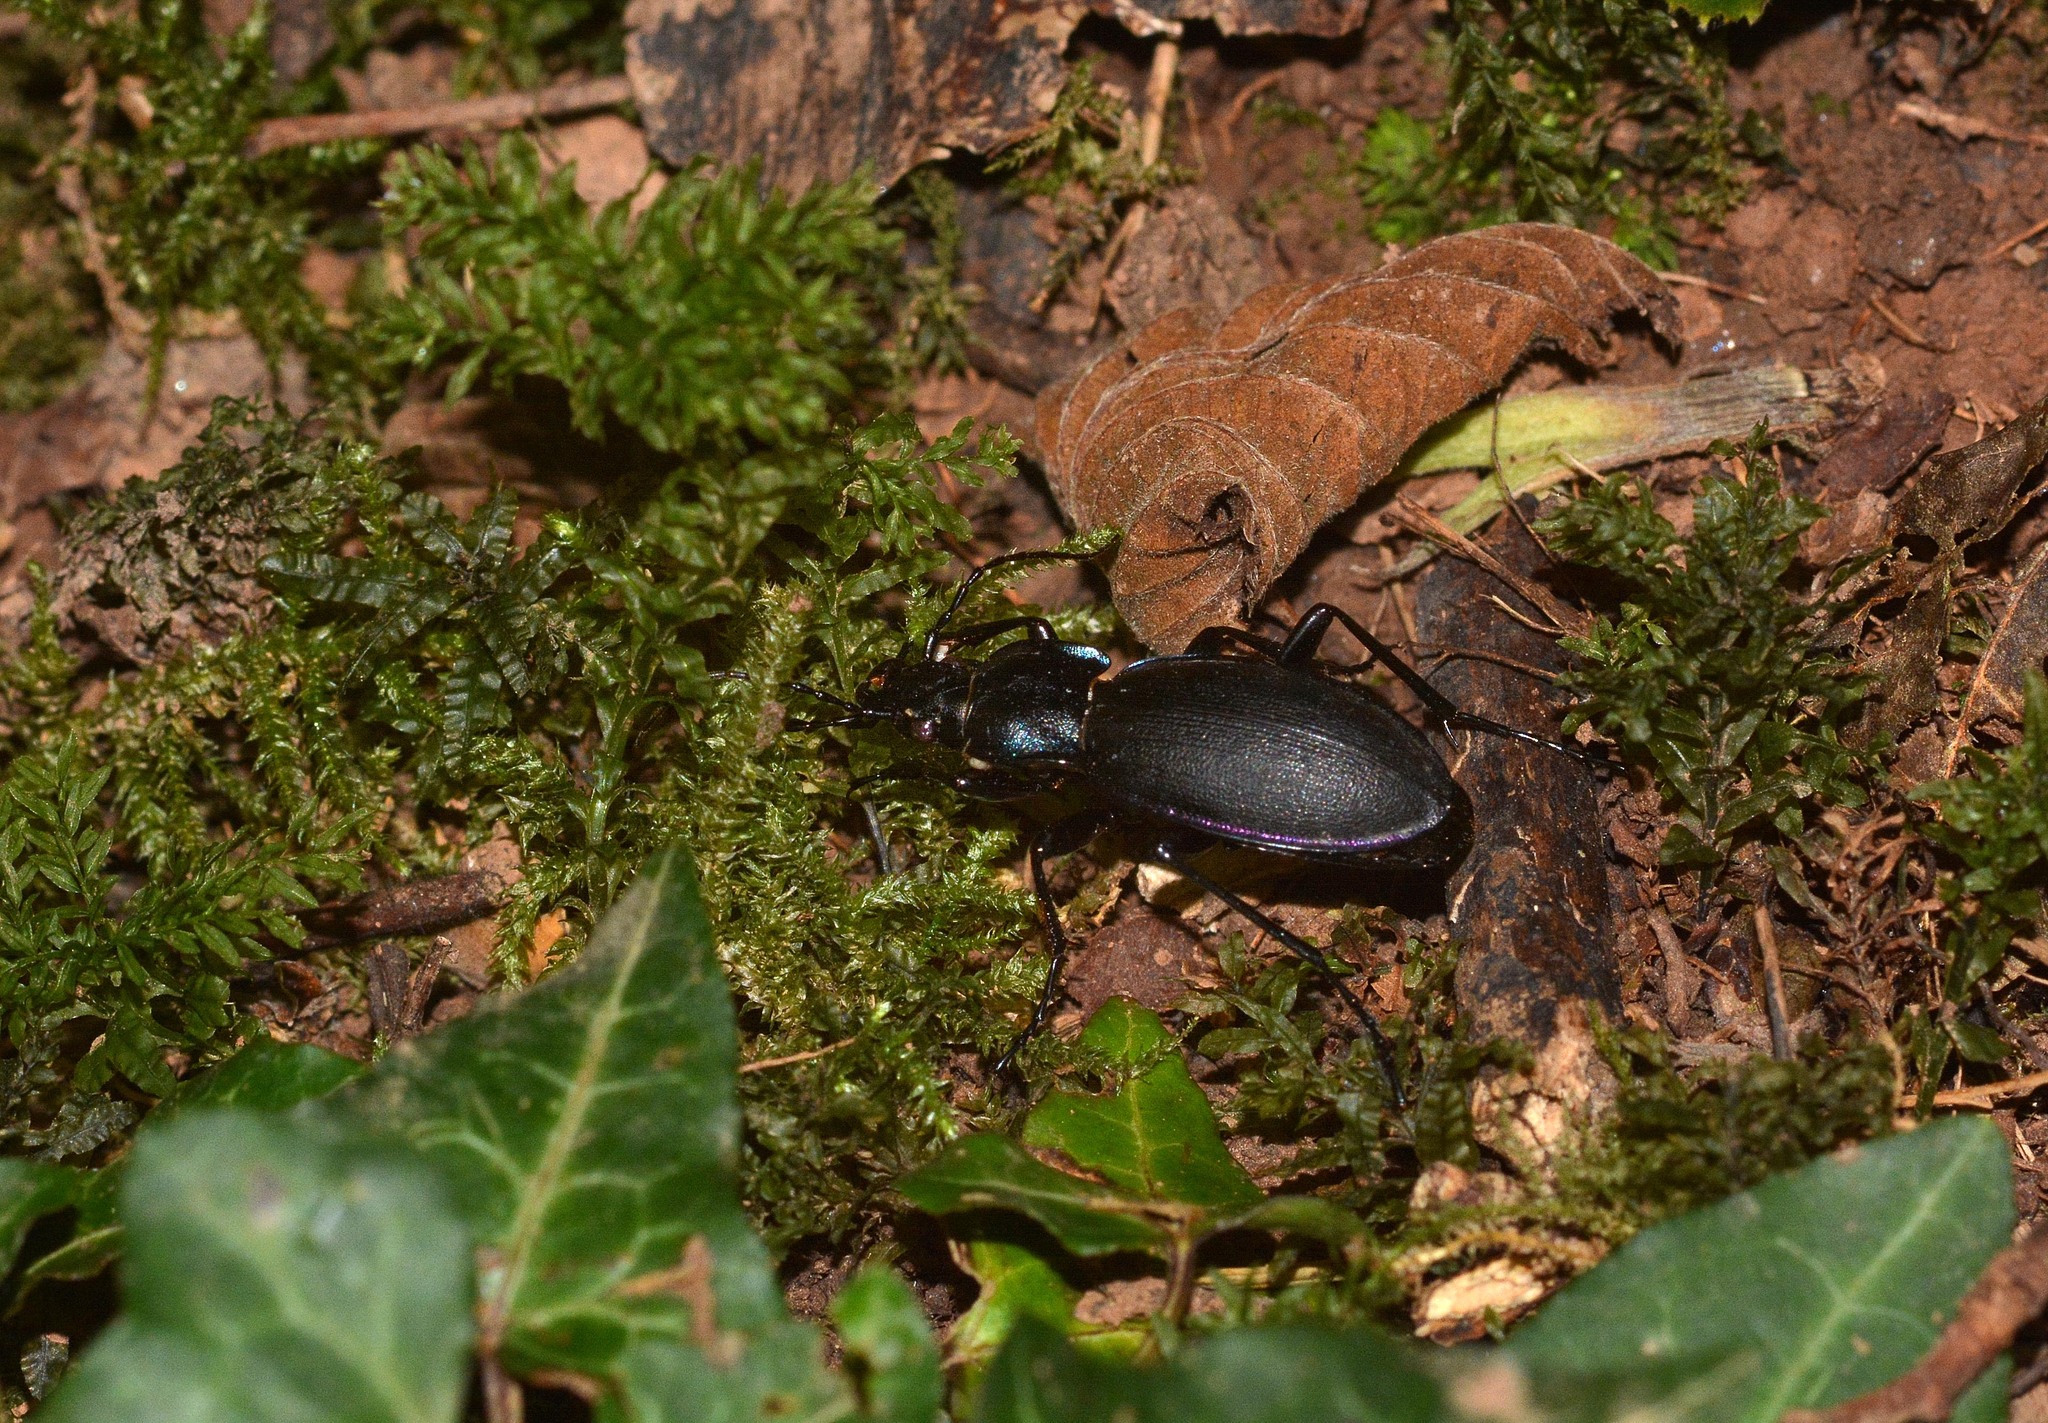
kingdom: Animalia
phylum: Arthropoda
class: Insecta
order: Coleoptera
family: Carabidae
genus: Carabus
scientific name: Carabus violaceus
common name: Violet ground beetle
